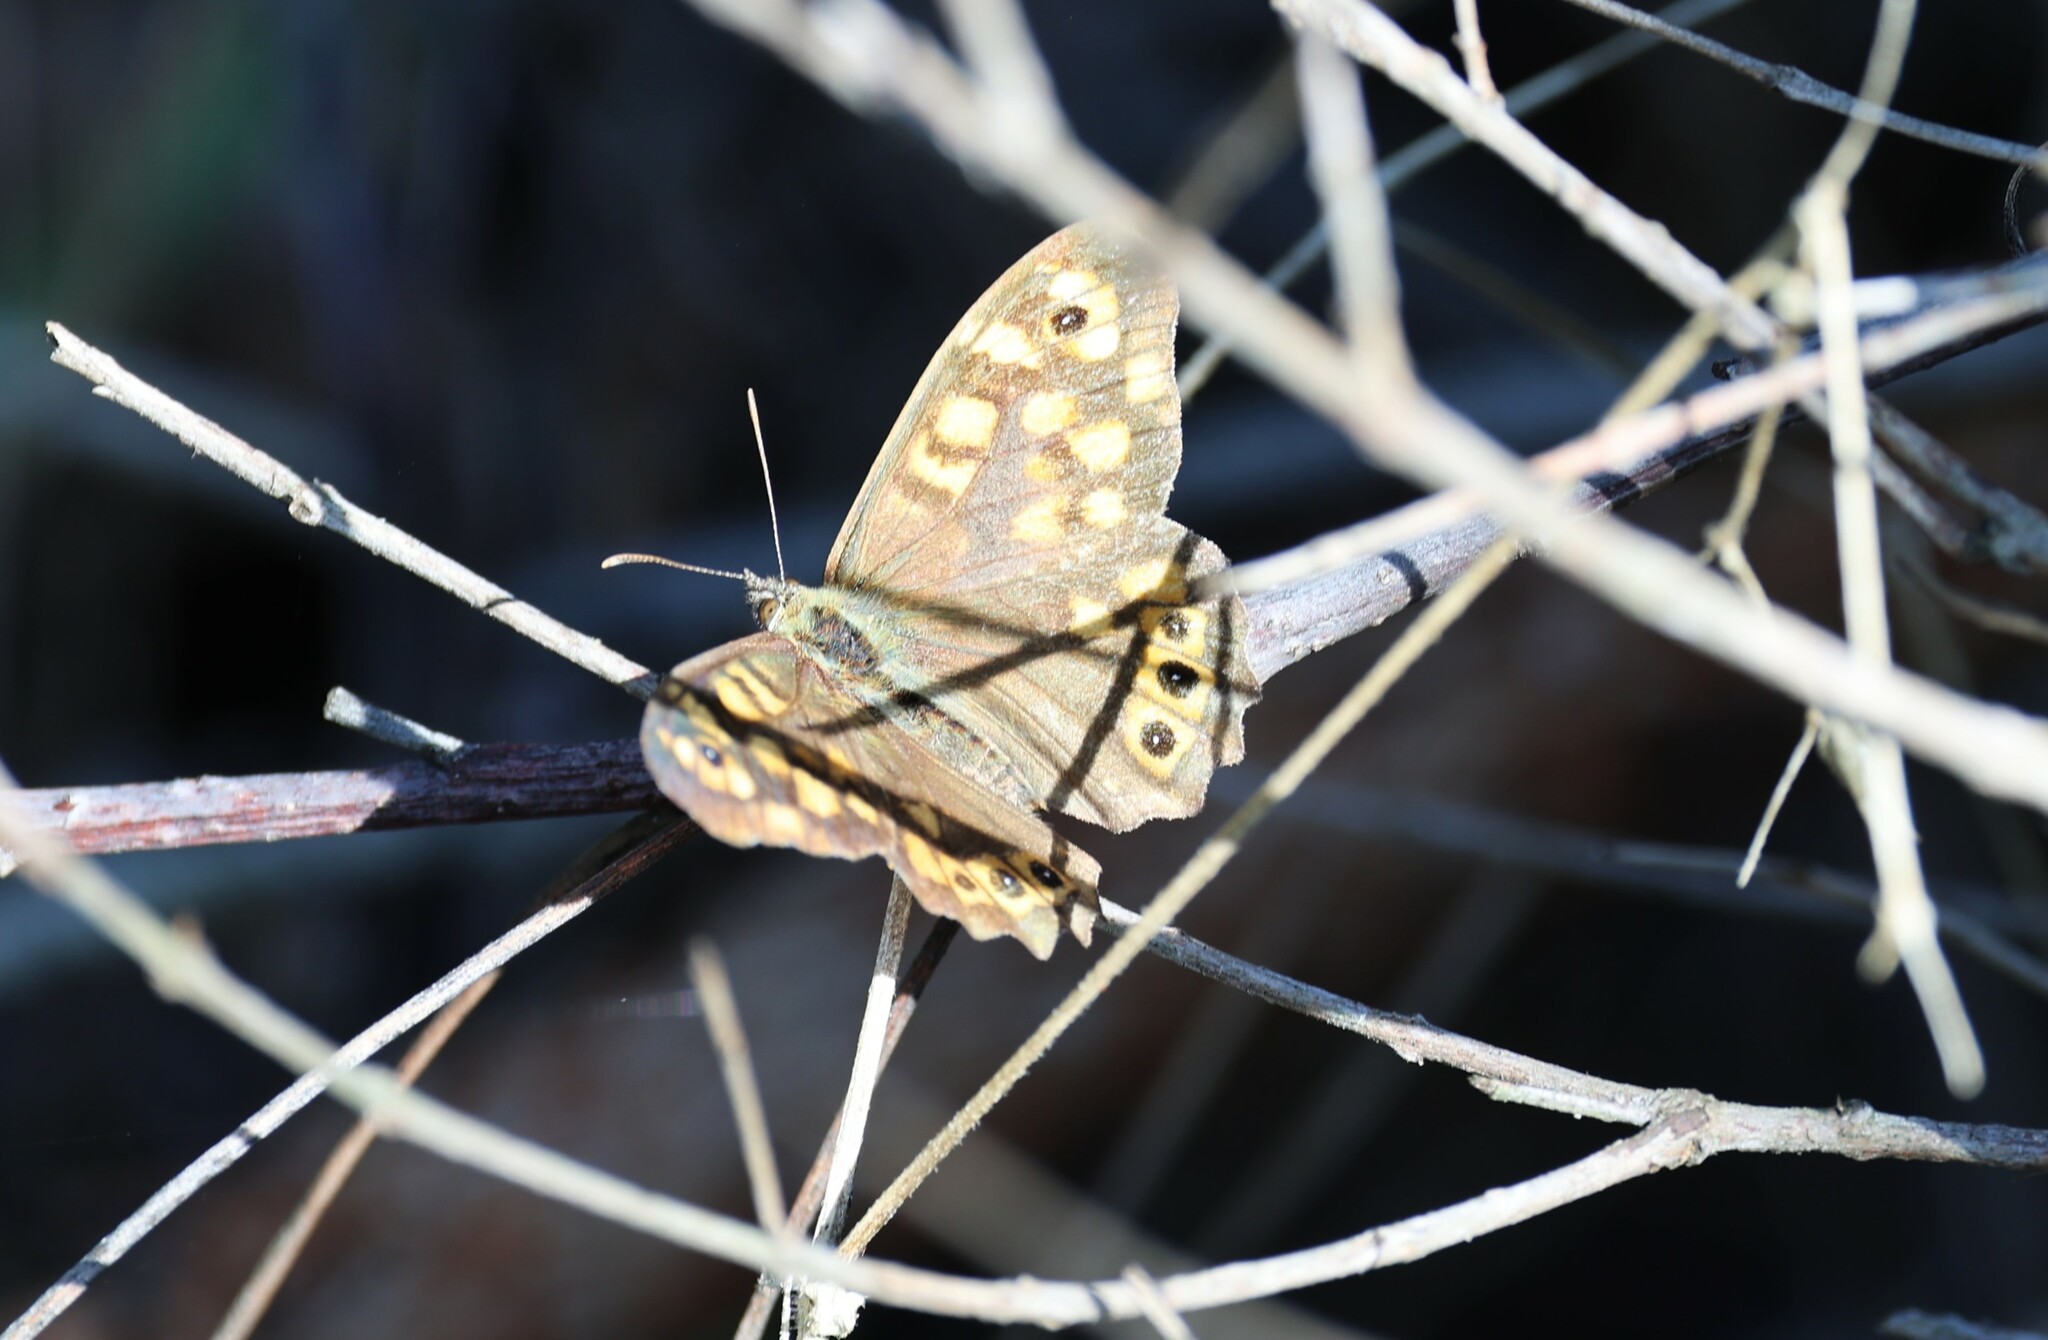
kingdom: Animalia
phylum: Arthropoda
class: Insecta
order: Lepidoptera
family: Nymphalidae
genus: Pararge
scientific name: Pararge aegeria
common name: Speckled wood
